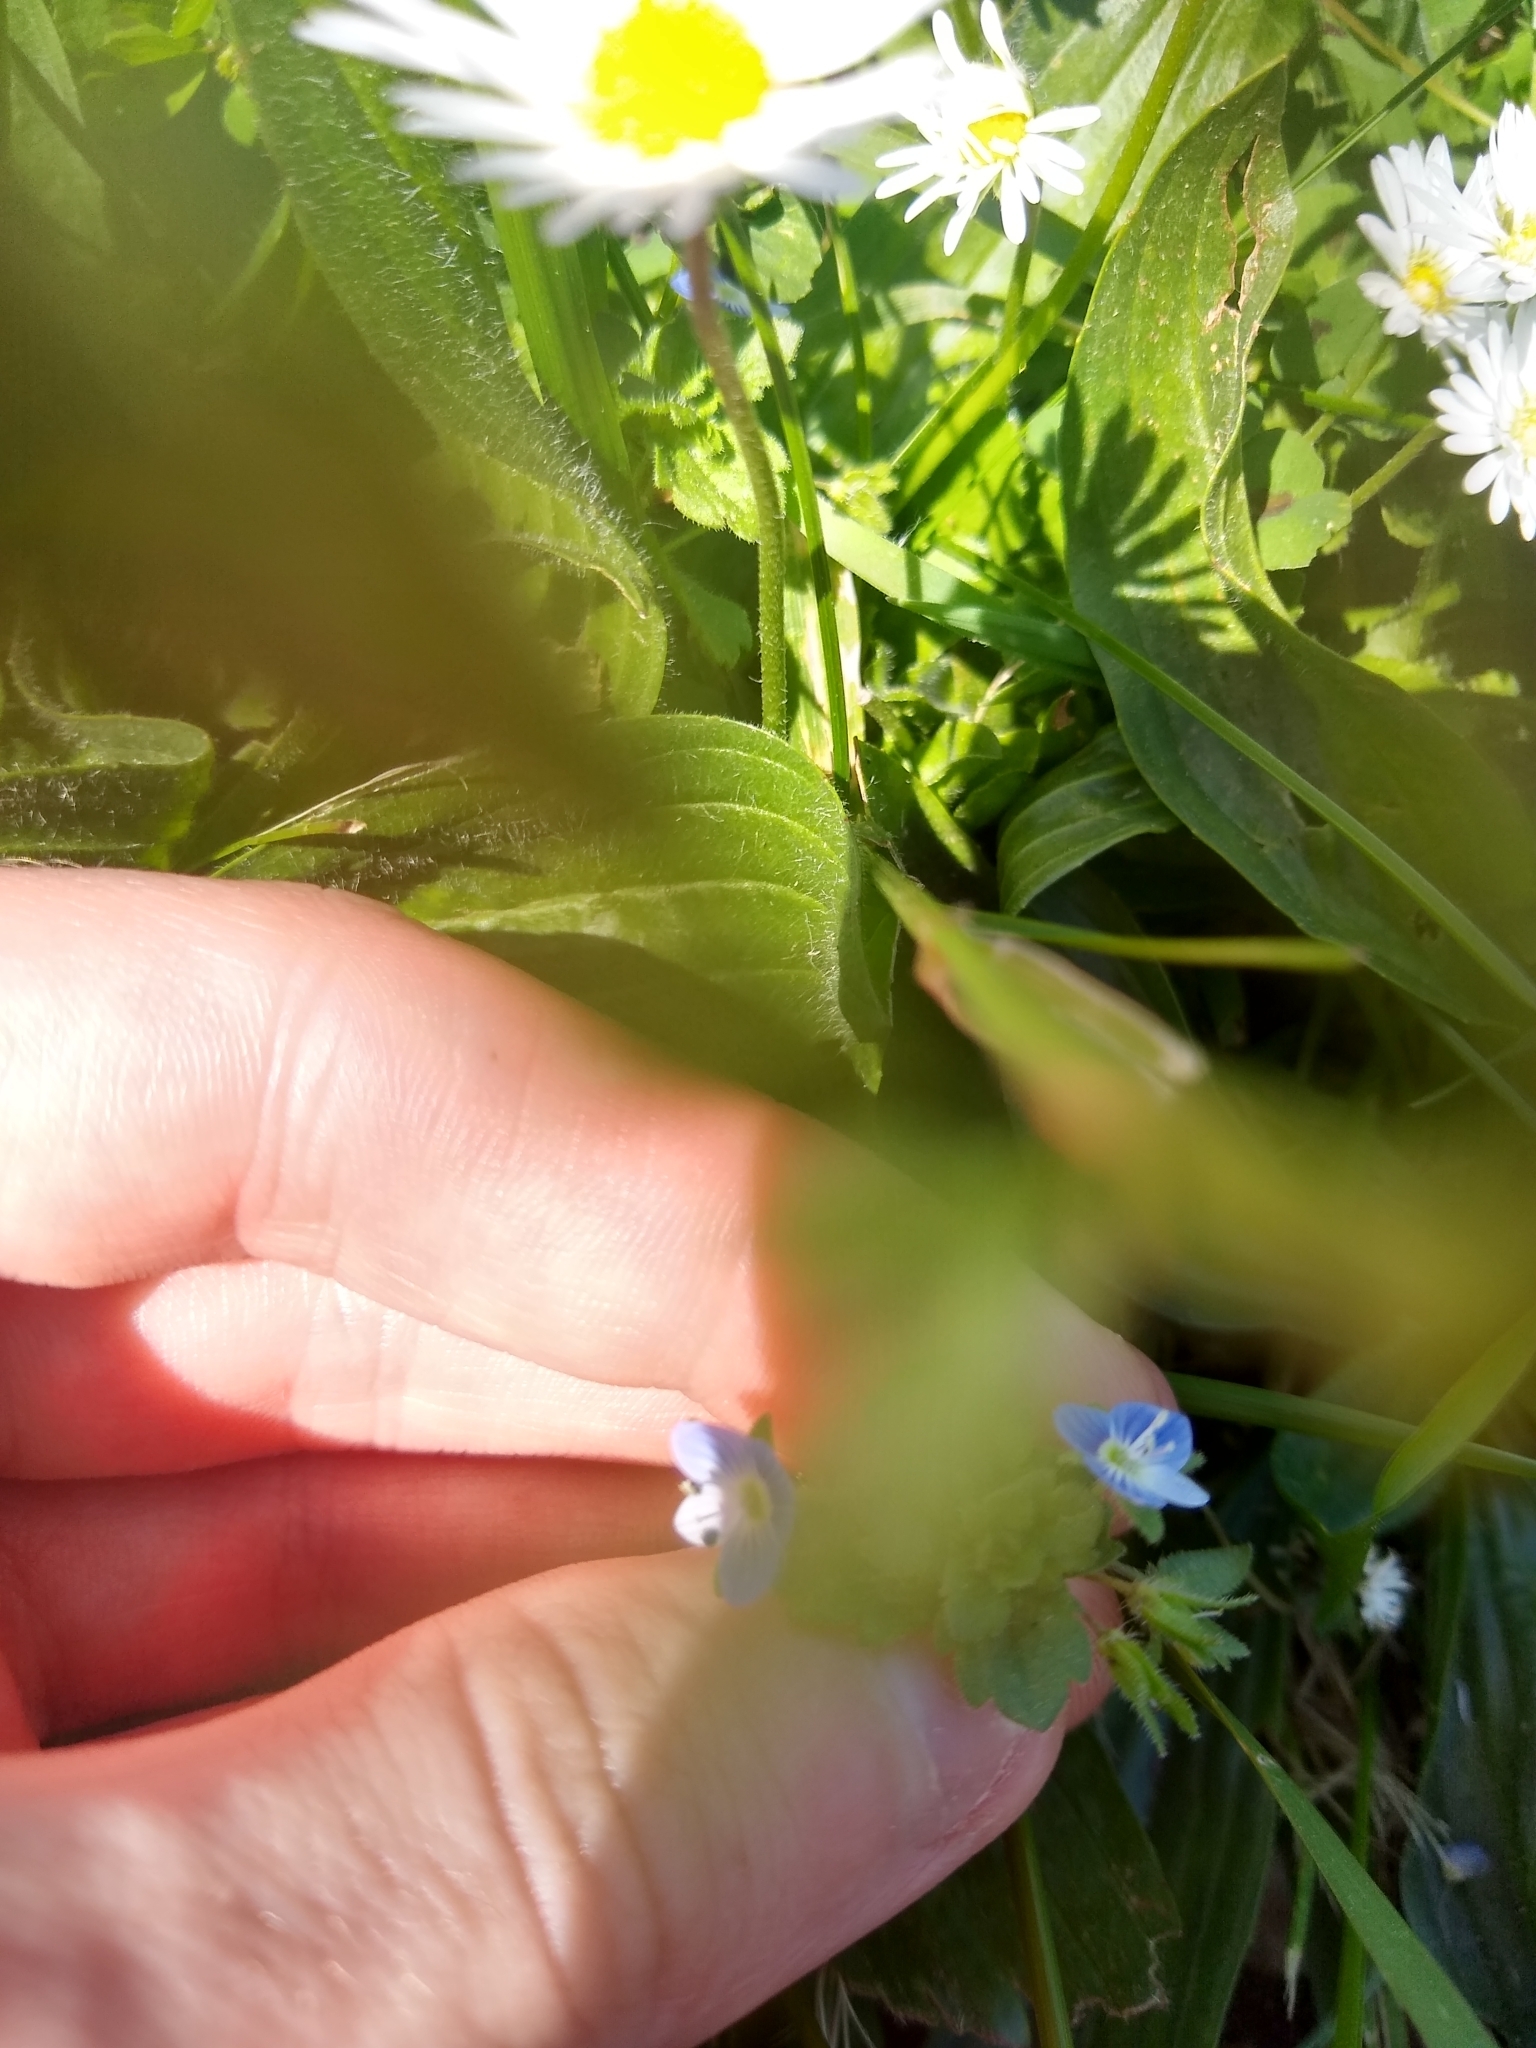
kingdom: Plantae
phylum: Tracheophyta
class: Magnoliopsida
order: Lamiales
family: Plantaginaceae
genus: Veronica
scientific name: Veronica persica
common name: Common field-speedwell
